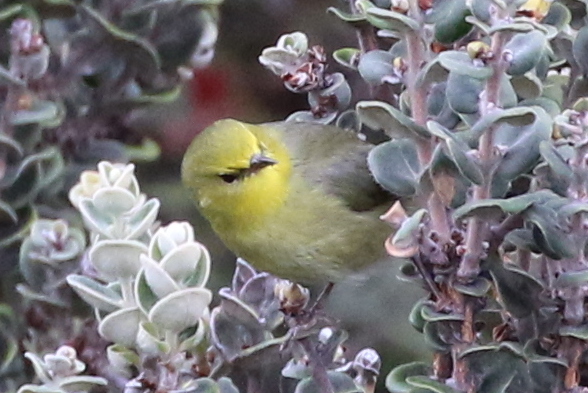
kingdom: Animalia
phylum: Chordata
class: Aves
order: Passeriformes
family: Fringillidae
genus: Paroreomyza
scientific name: Paroreomyza montana
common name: Maui alauahio
